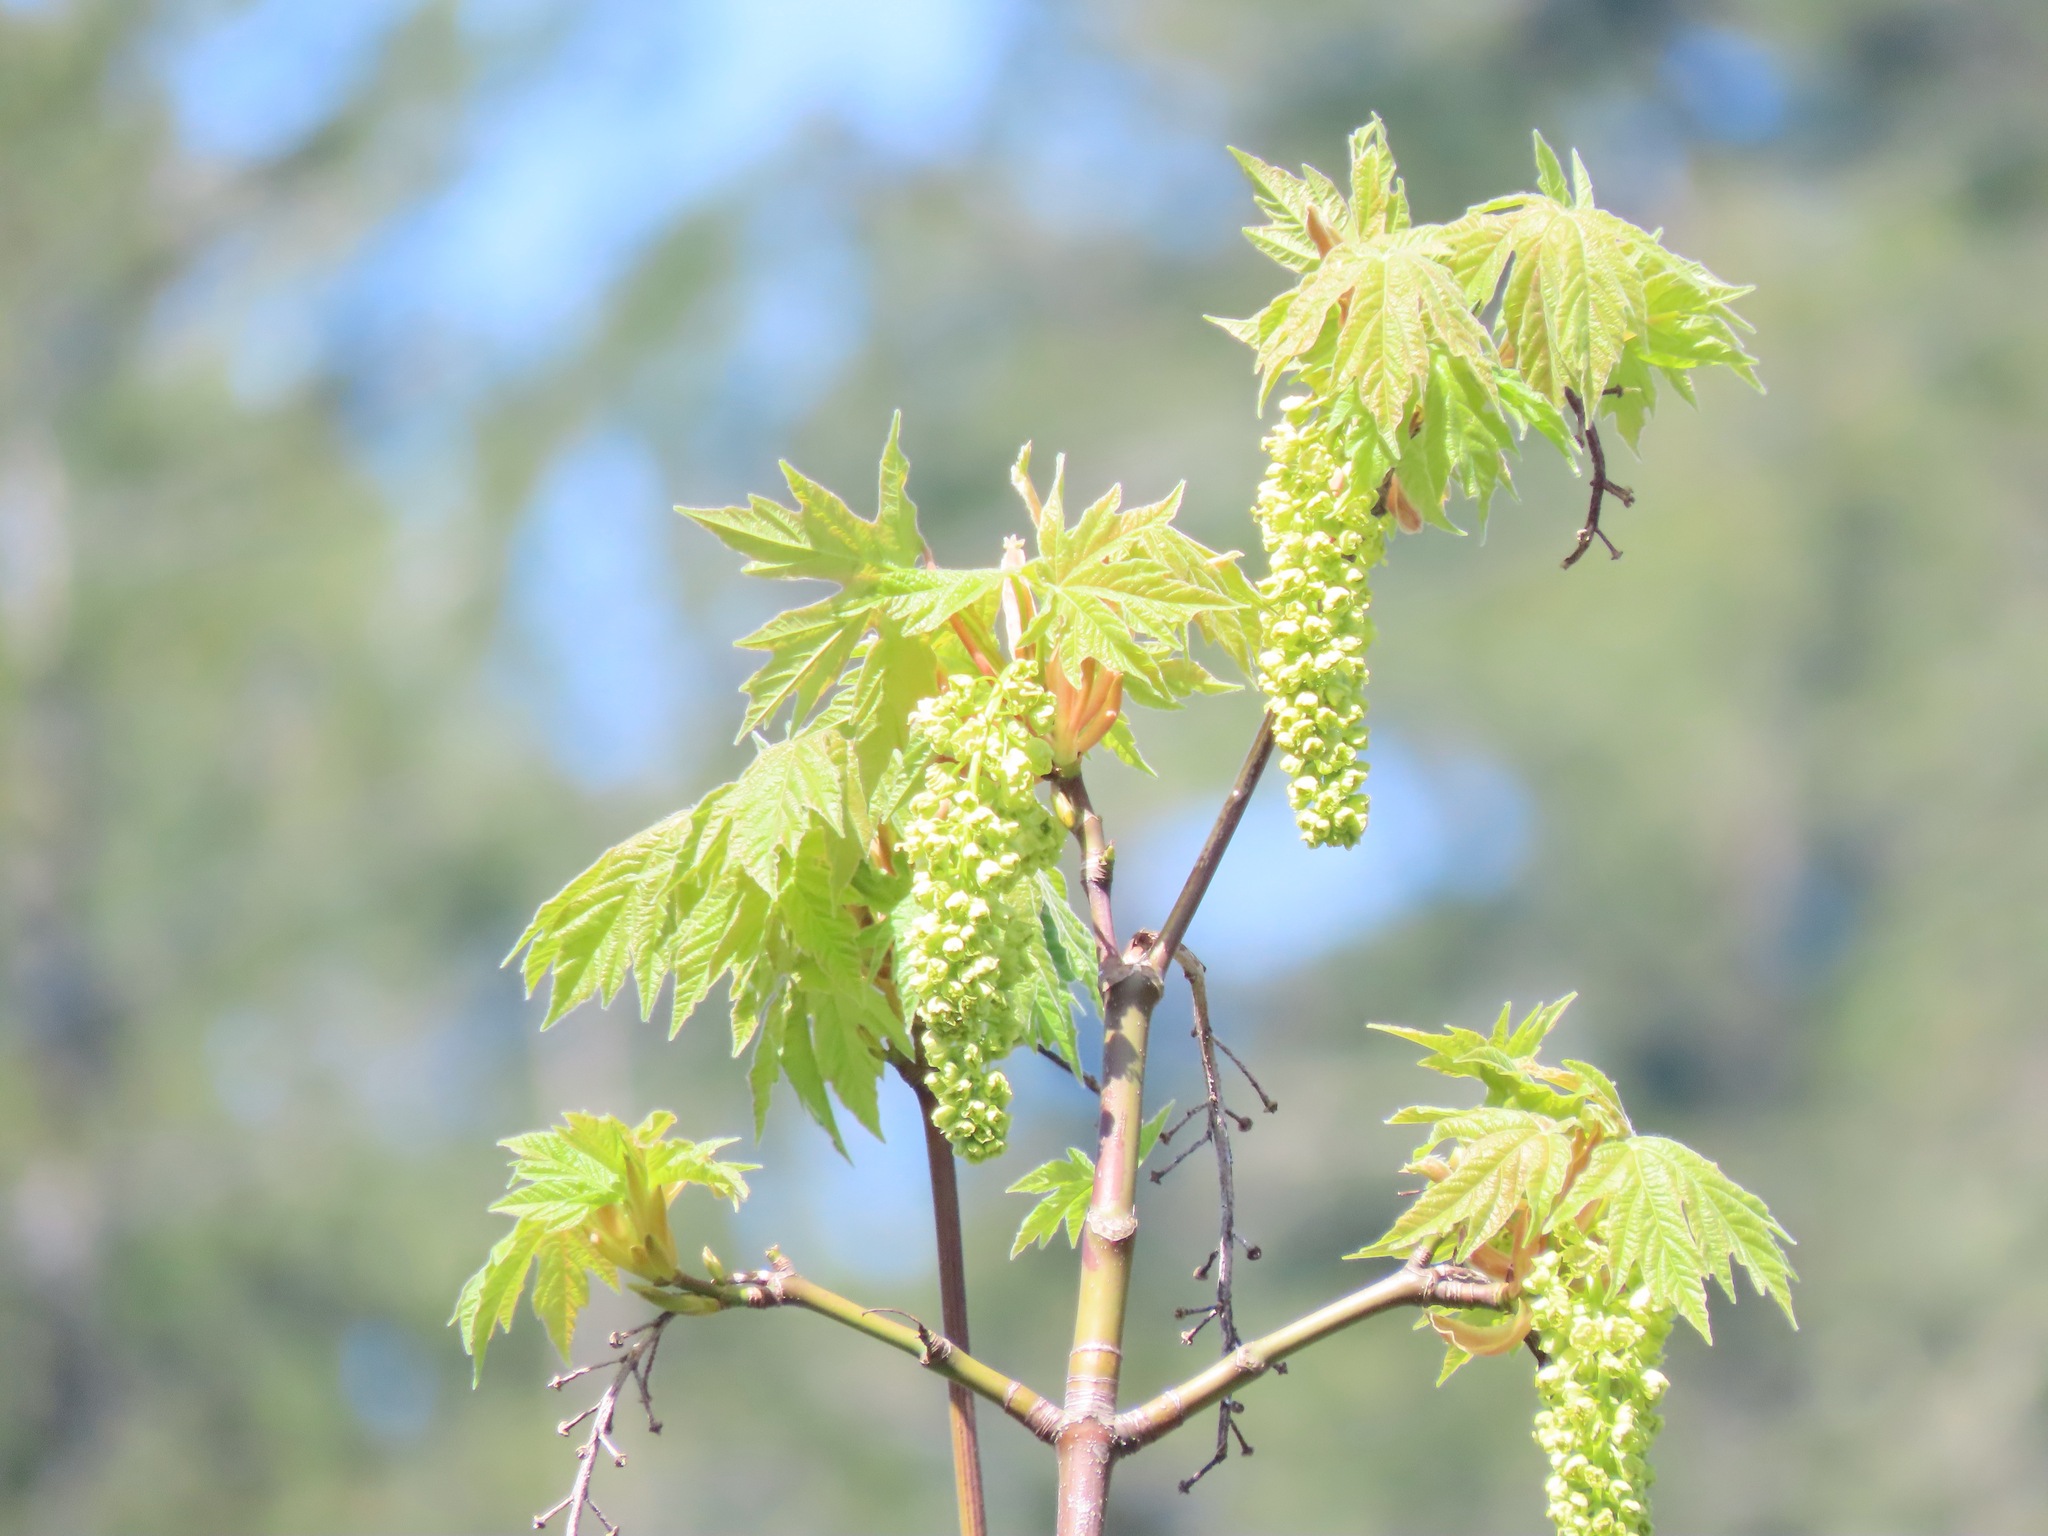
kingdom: Plantae
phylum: Tracheophyta
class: Magnoliopsida
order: Sapindales
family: Sapindaceae
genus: Acer
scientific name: Acer macrophyllum
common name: Oregon maple
